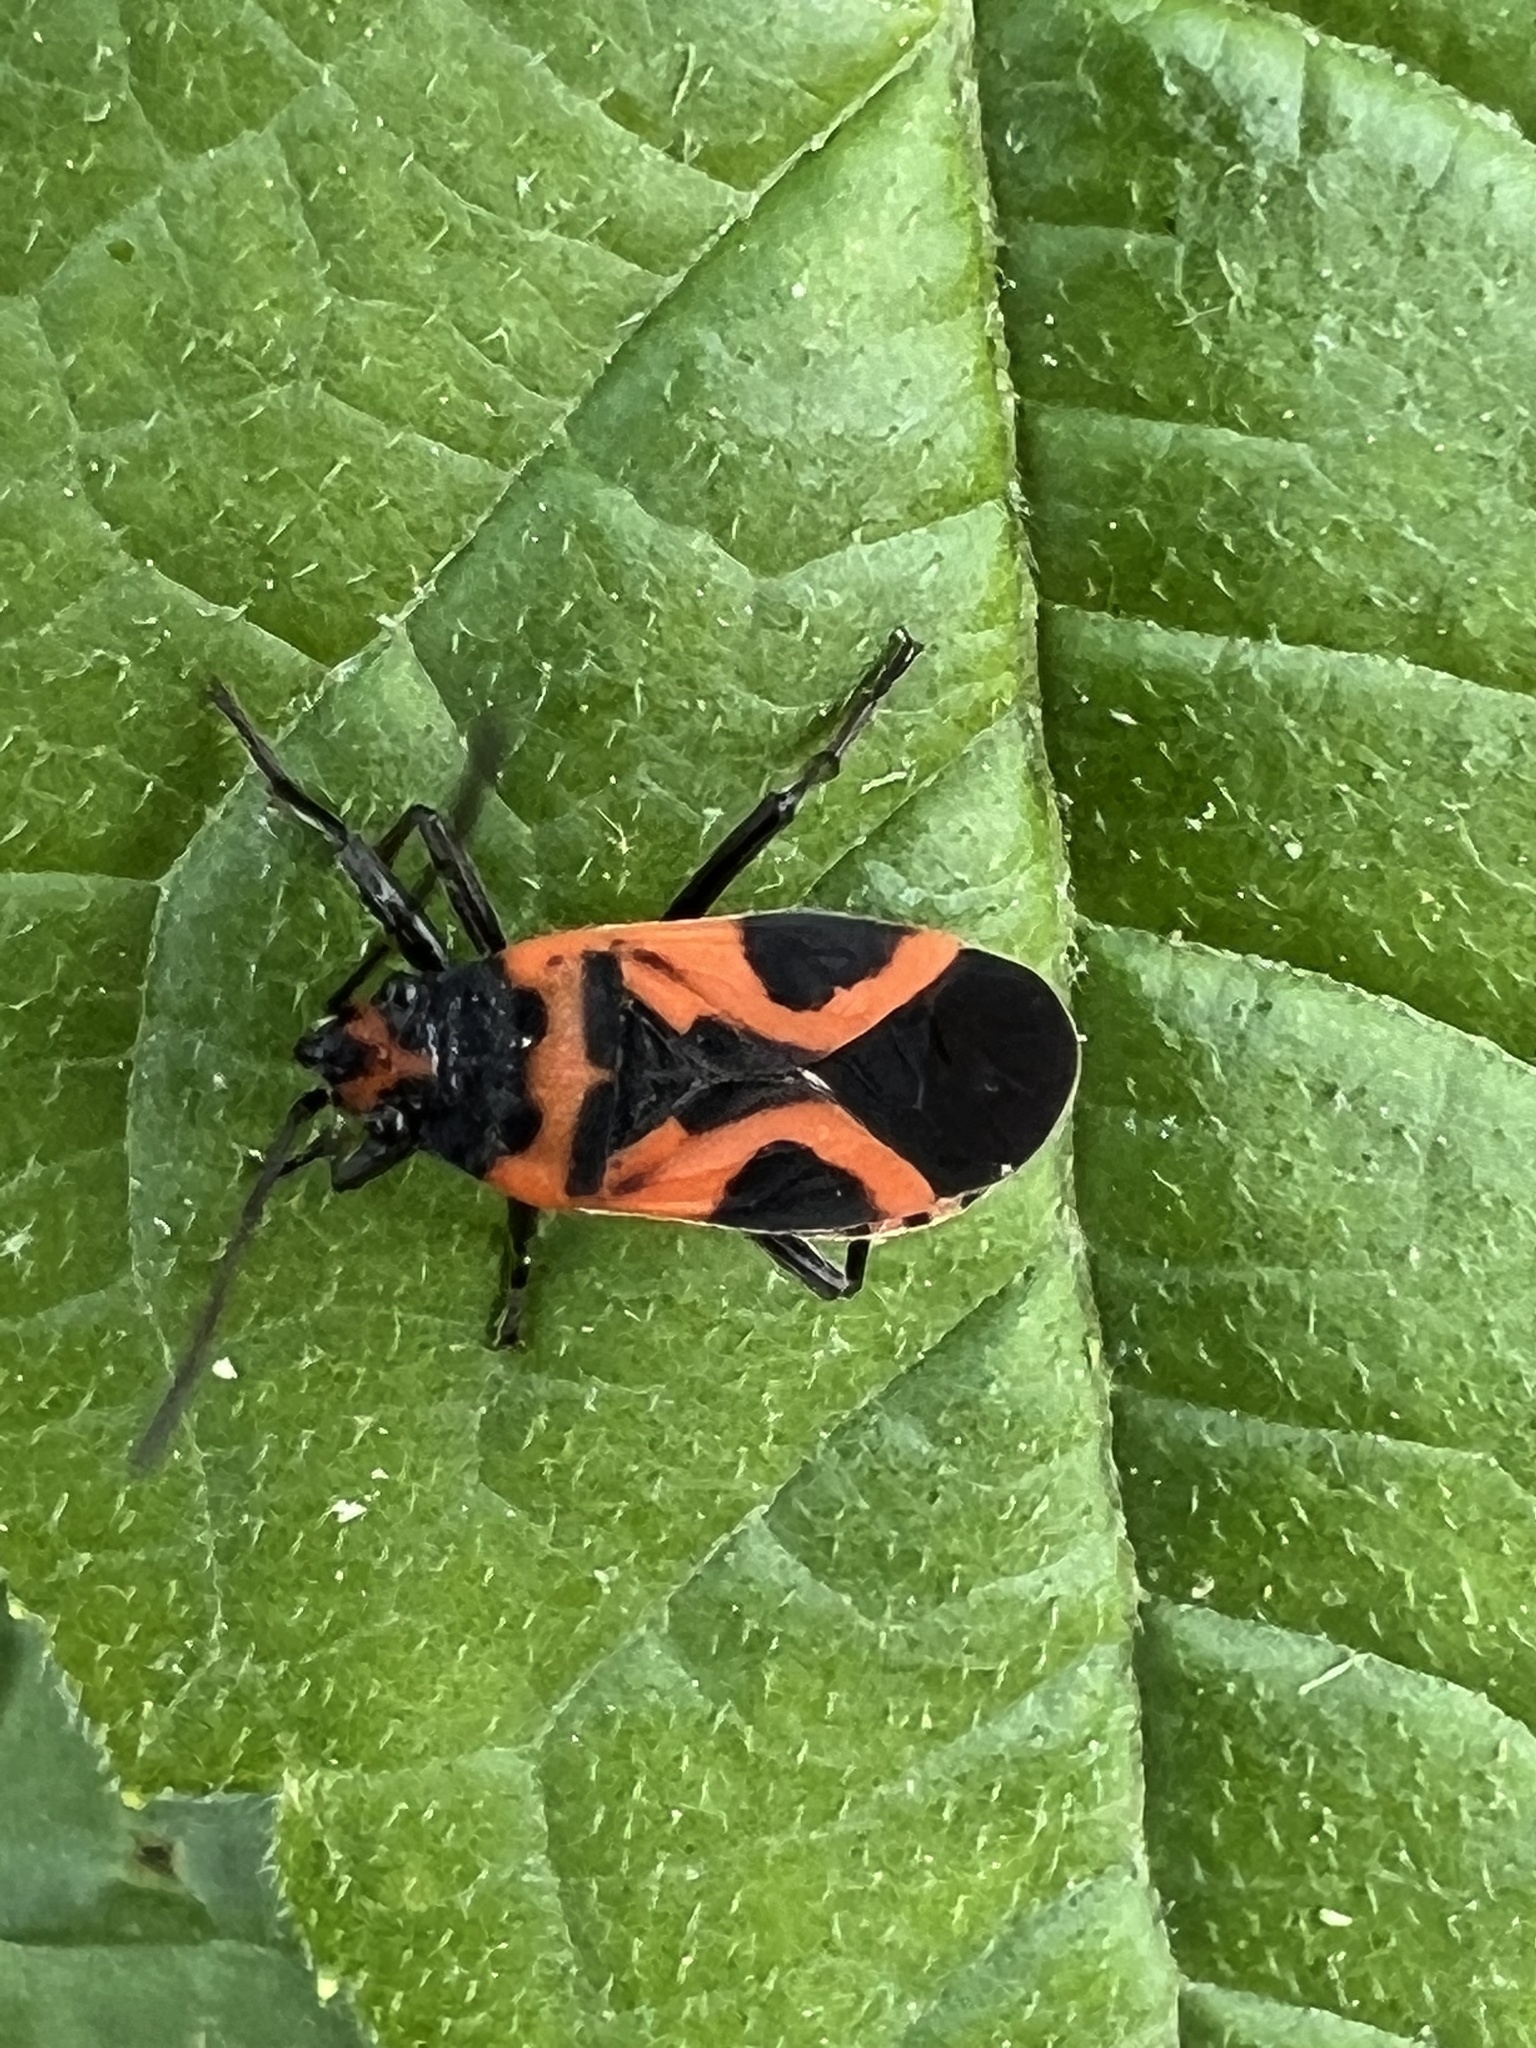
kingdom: Animalia
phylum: Arthropoda
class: Insecta
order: Hemiptera
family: Lygaeidae
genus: Lygaeus
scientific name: Lygaeus turcicus
